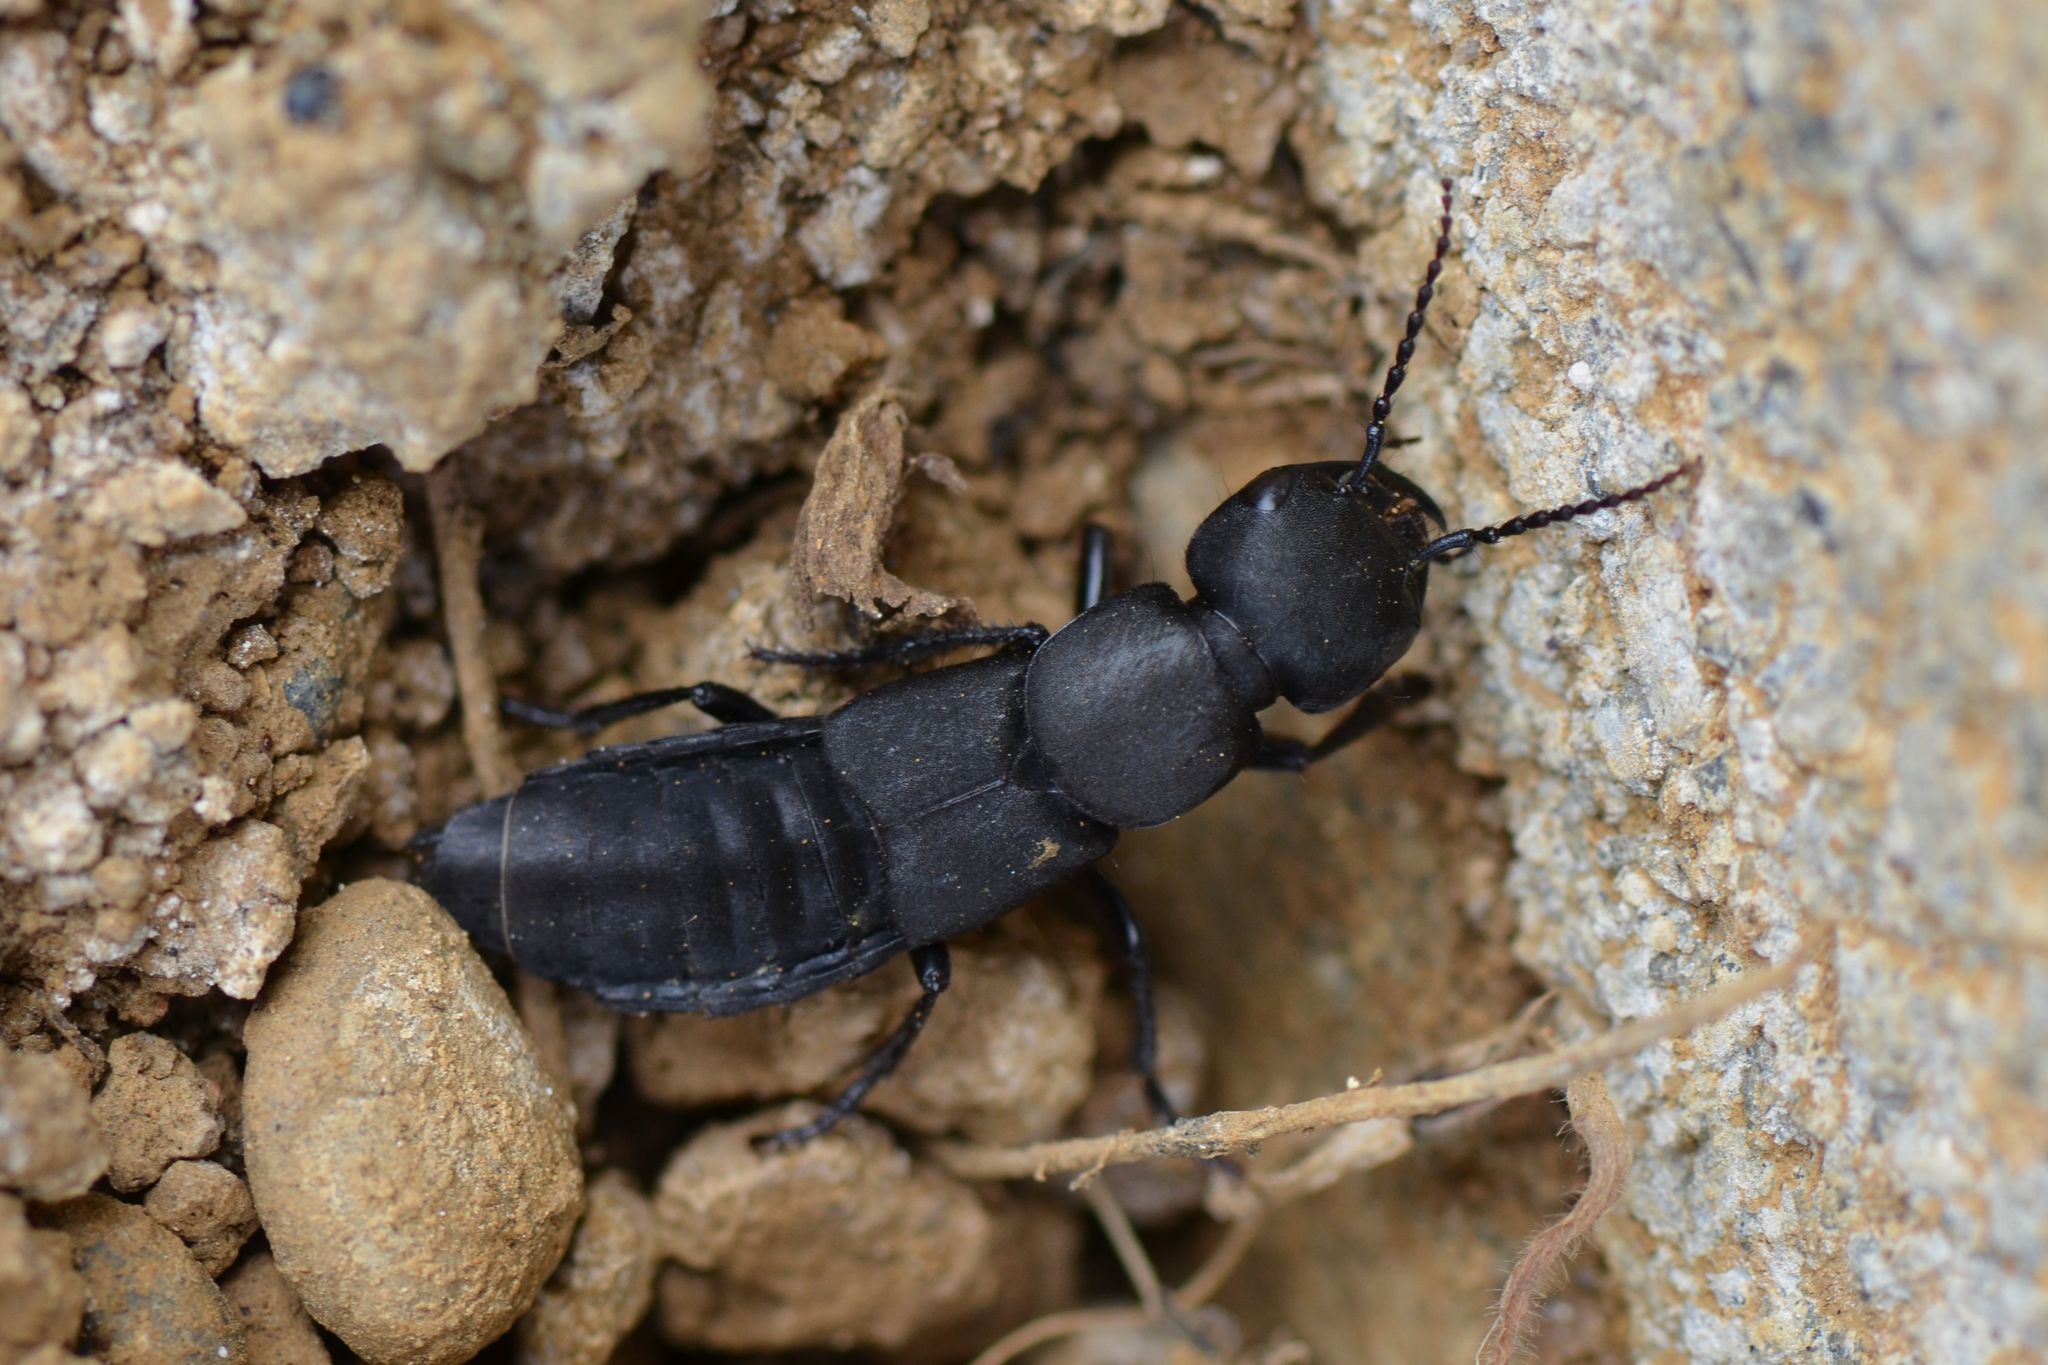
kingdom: Animalia
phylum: Arthropoda
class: Insecta
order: Coleoptera
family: Staphylinidae
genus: Ocypus
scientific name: Ocypus olens
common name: Devil's coach-horse
